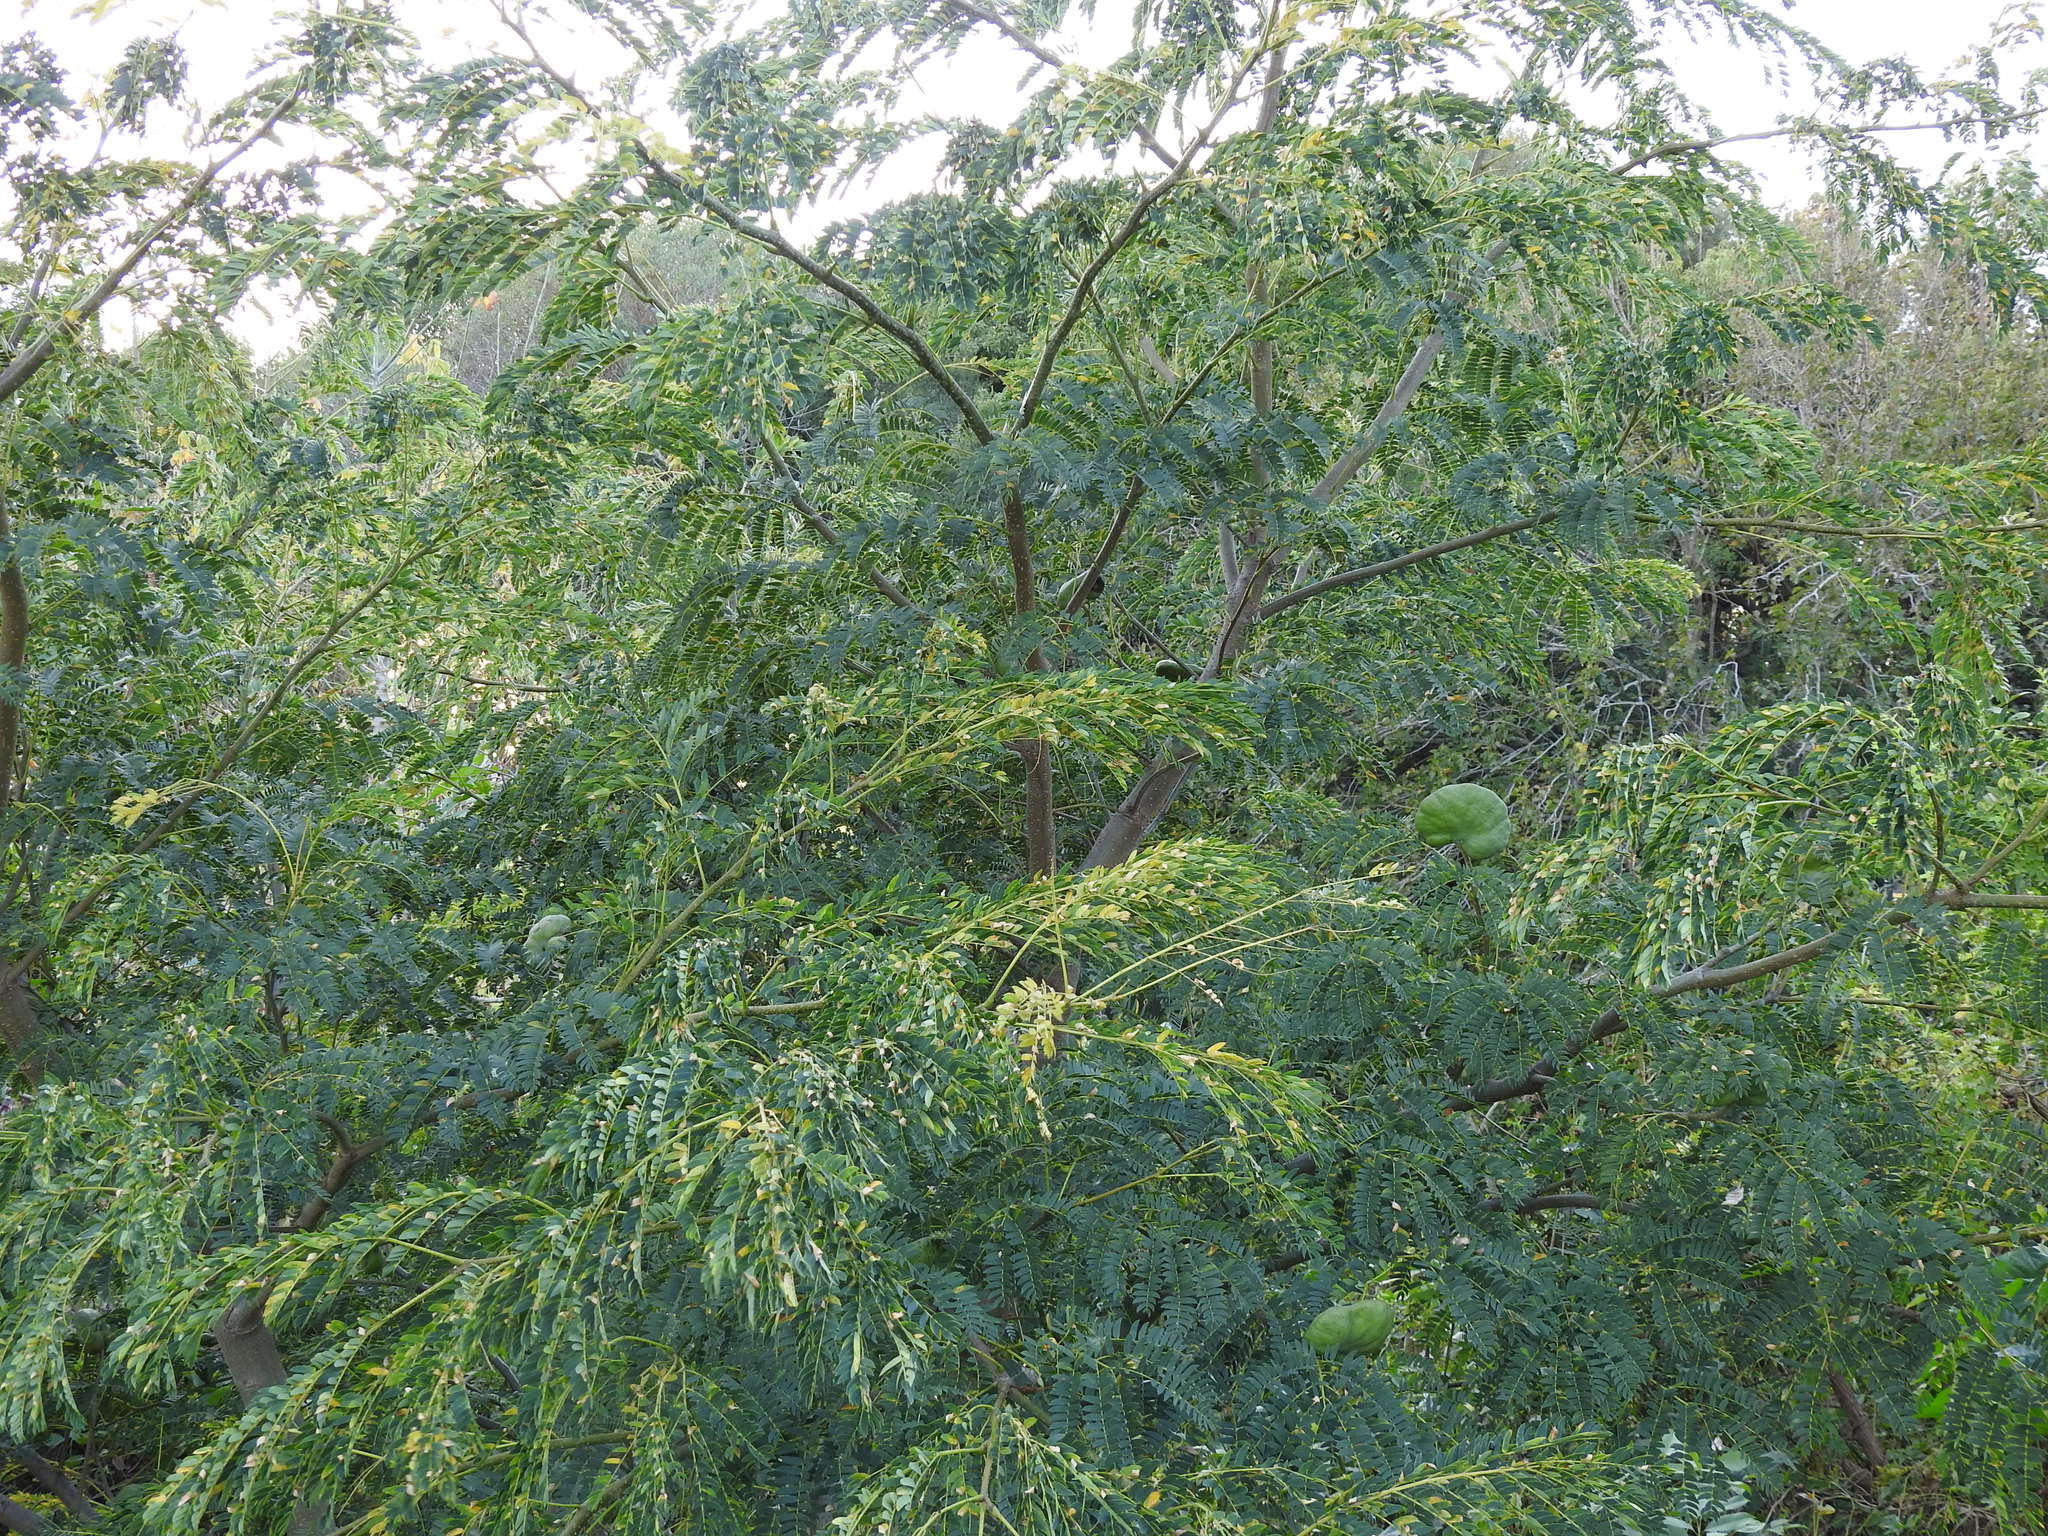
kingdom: Plantae
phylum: Tracheophyta
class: Magnoliopsida
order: Fabales
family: Fabaceae
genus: Enterolobium
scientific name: Enterolobium contortisiliquum
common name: Pacara earpod tree
